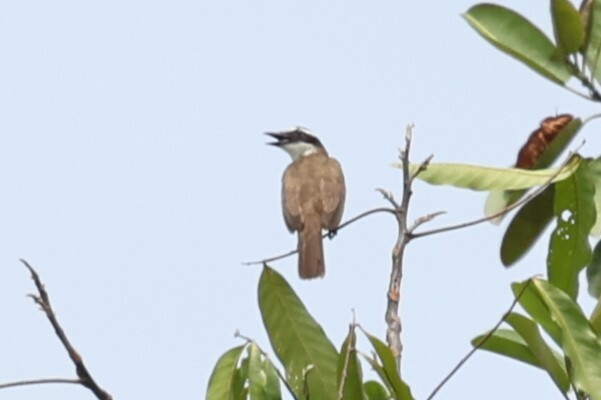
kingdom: Animalia
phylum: Chordata
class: Aves
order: Passeriformes
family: Tyrannidae
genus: Pitangus
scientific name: Pitangus sulphuratus
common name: Great kiskadee
